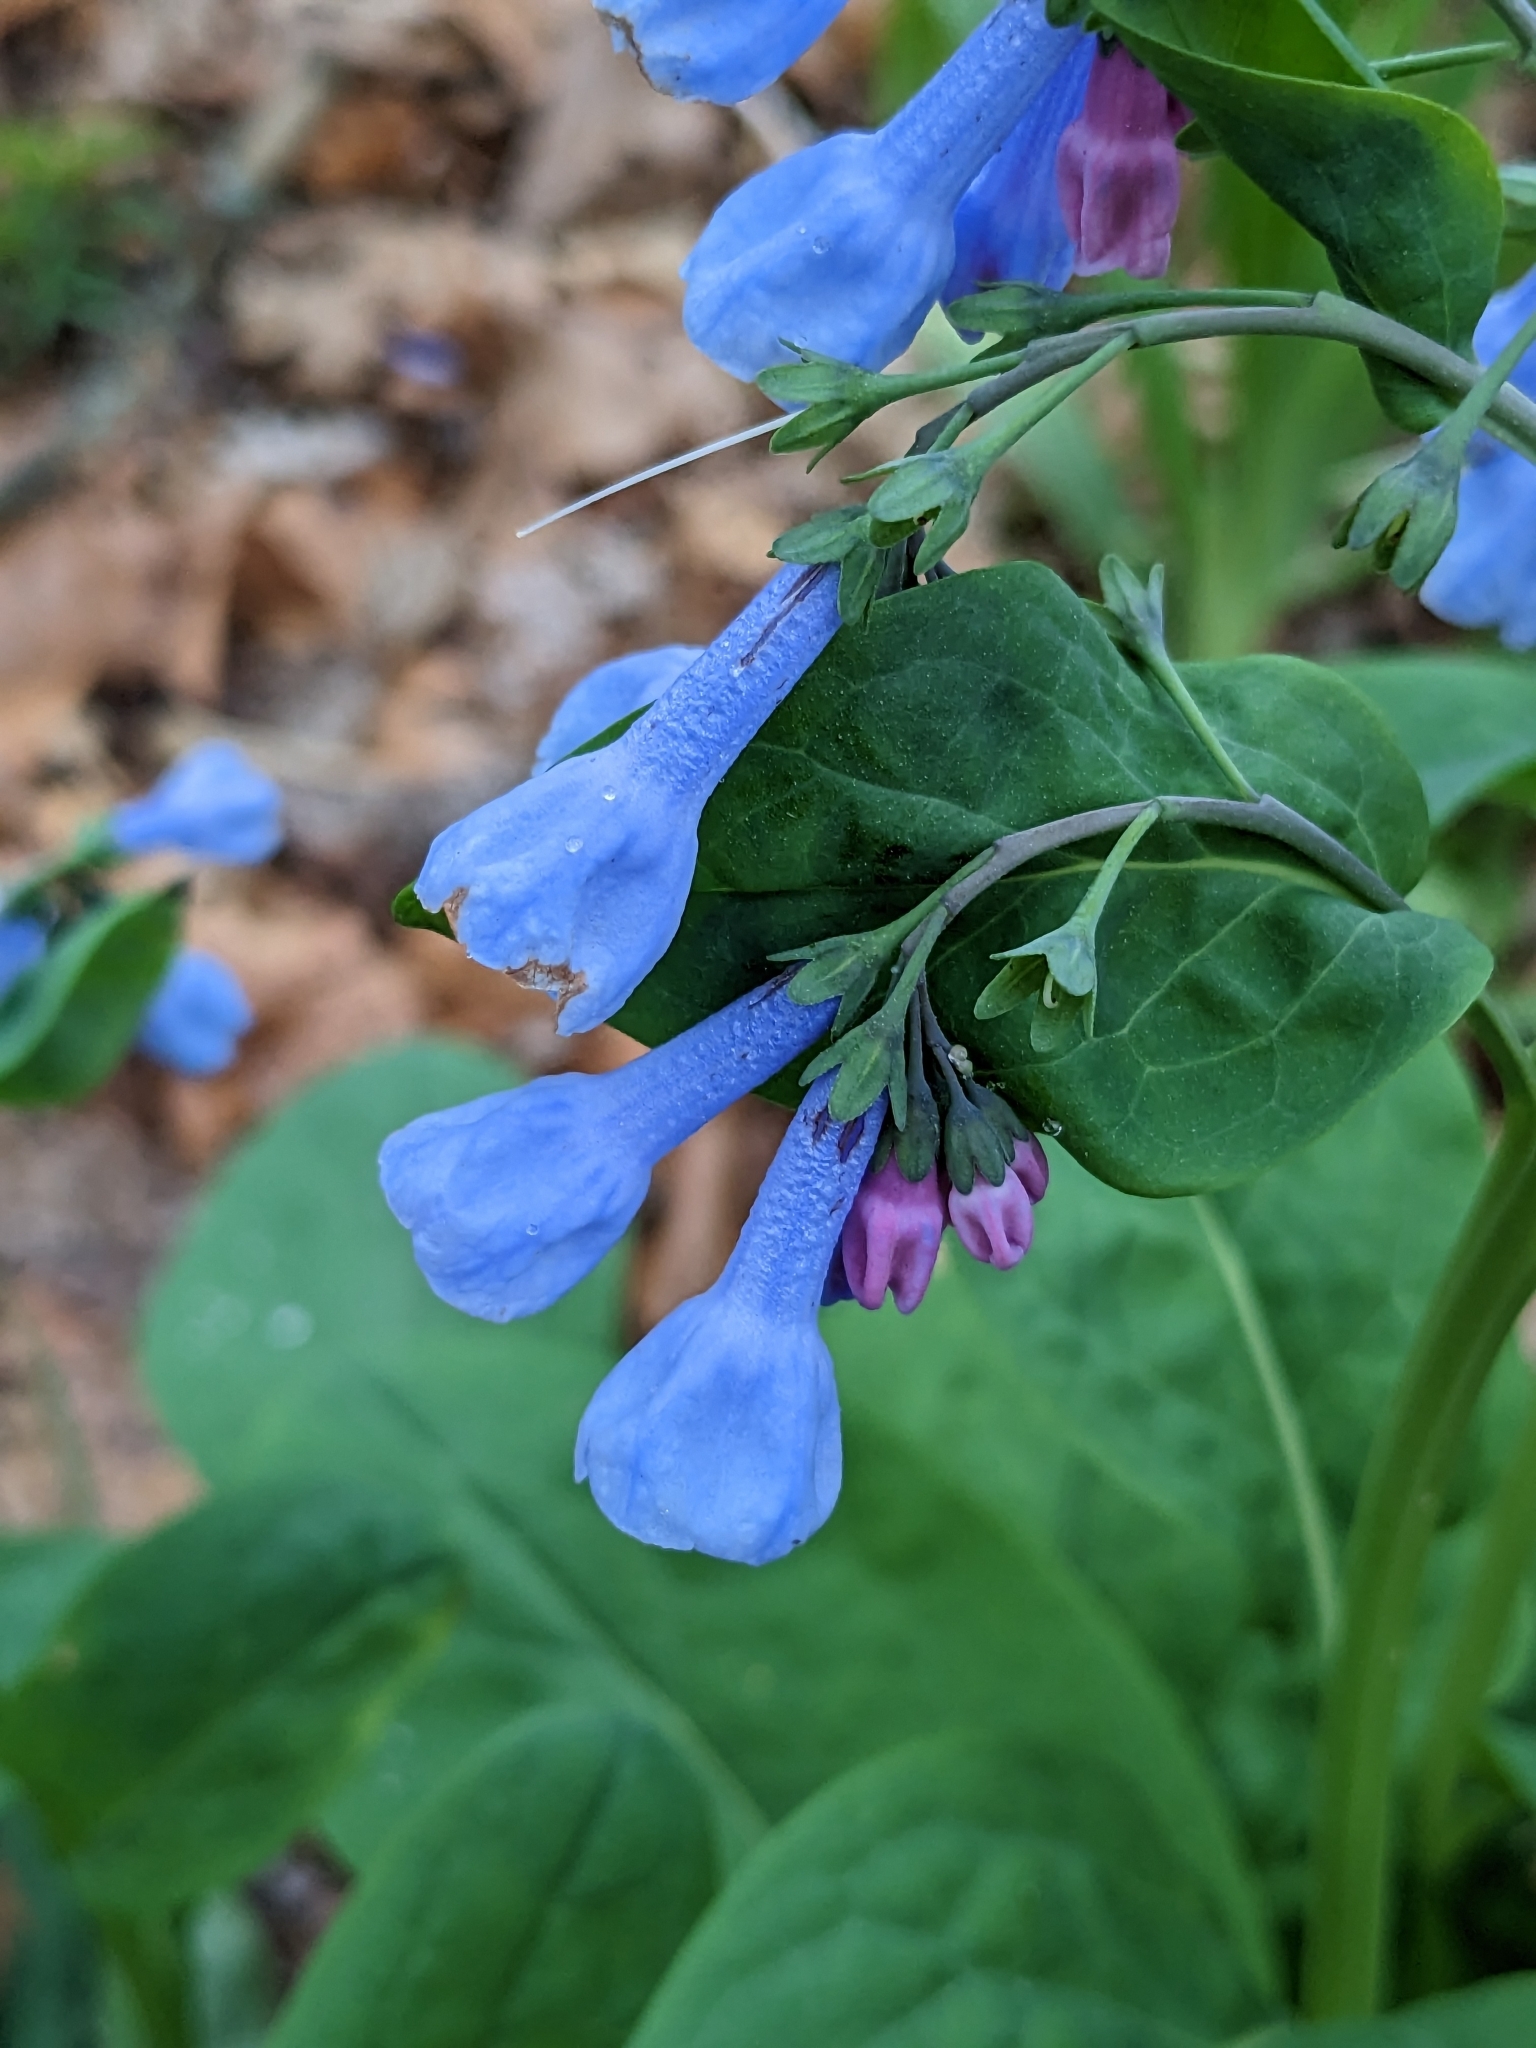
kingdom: Plantae
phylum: Tracheophyta
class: Magnoliopsida
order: Boraginales
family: Boraginaceae
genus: Mertensia
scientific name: Mertensia virginica
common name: Virginia bluebells
